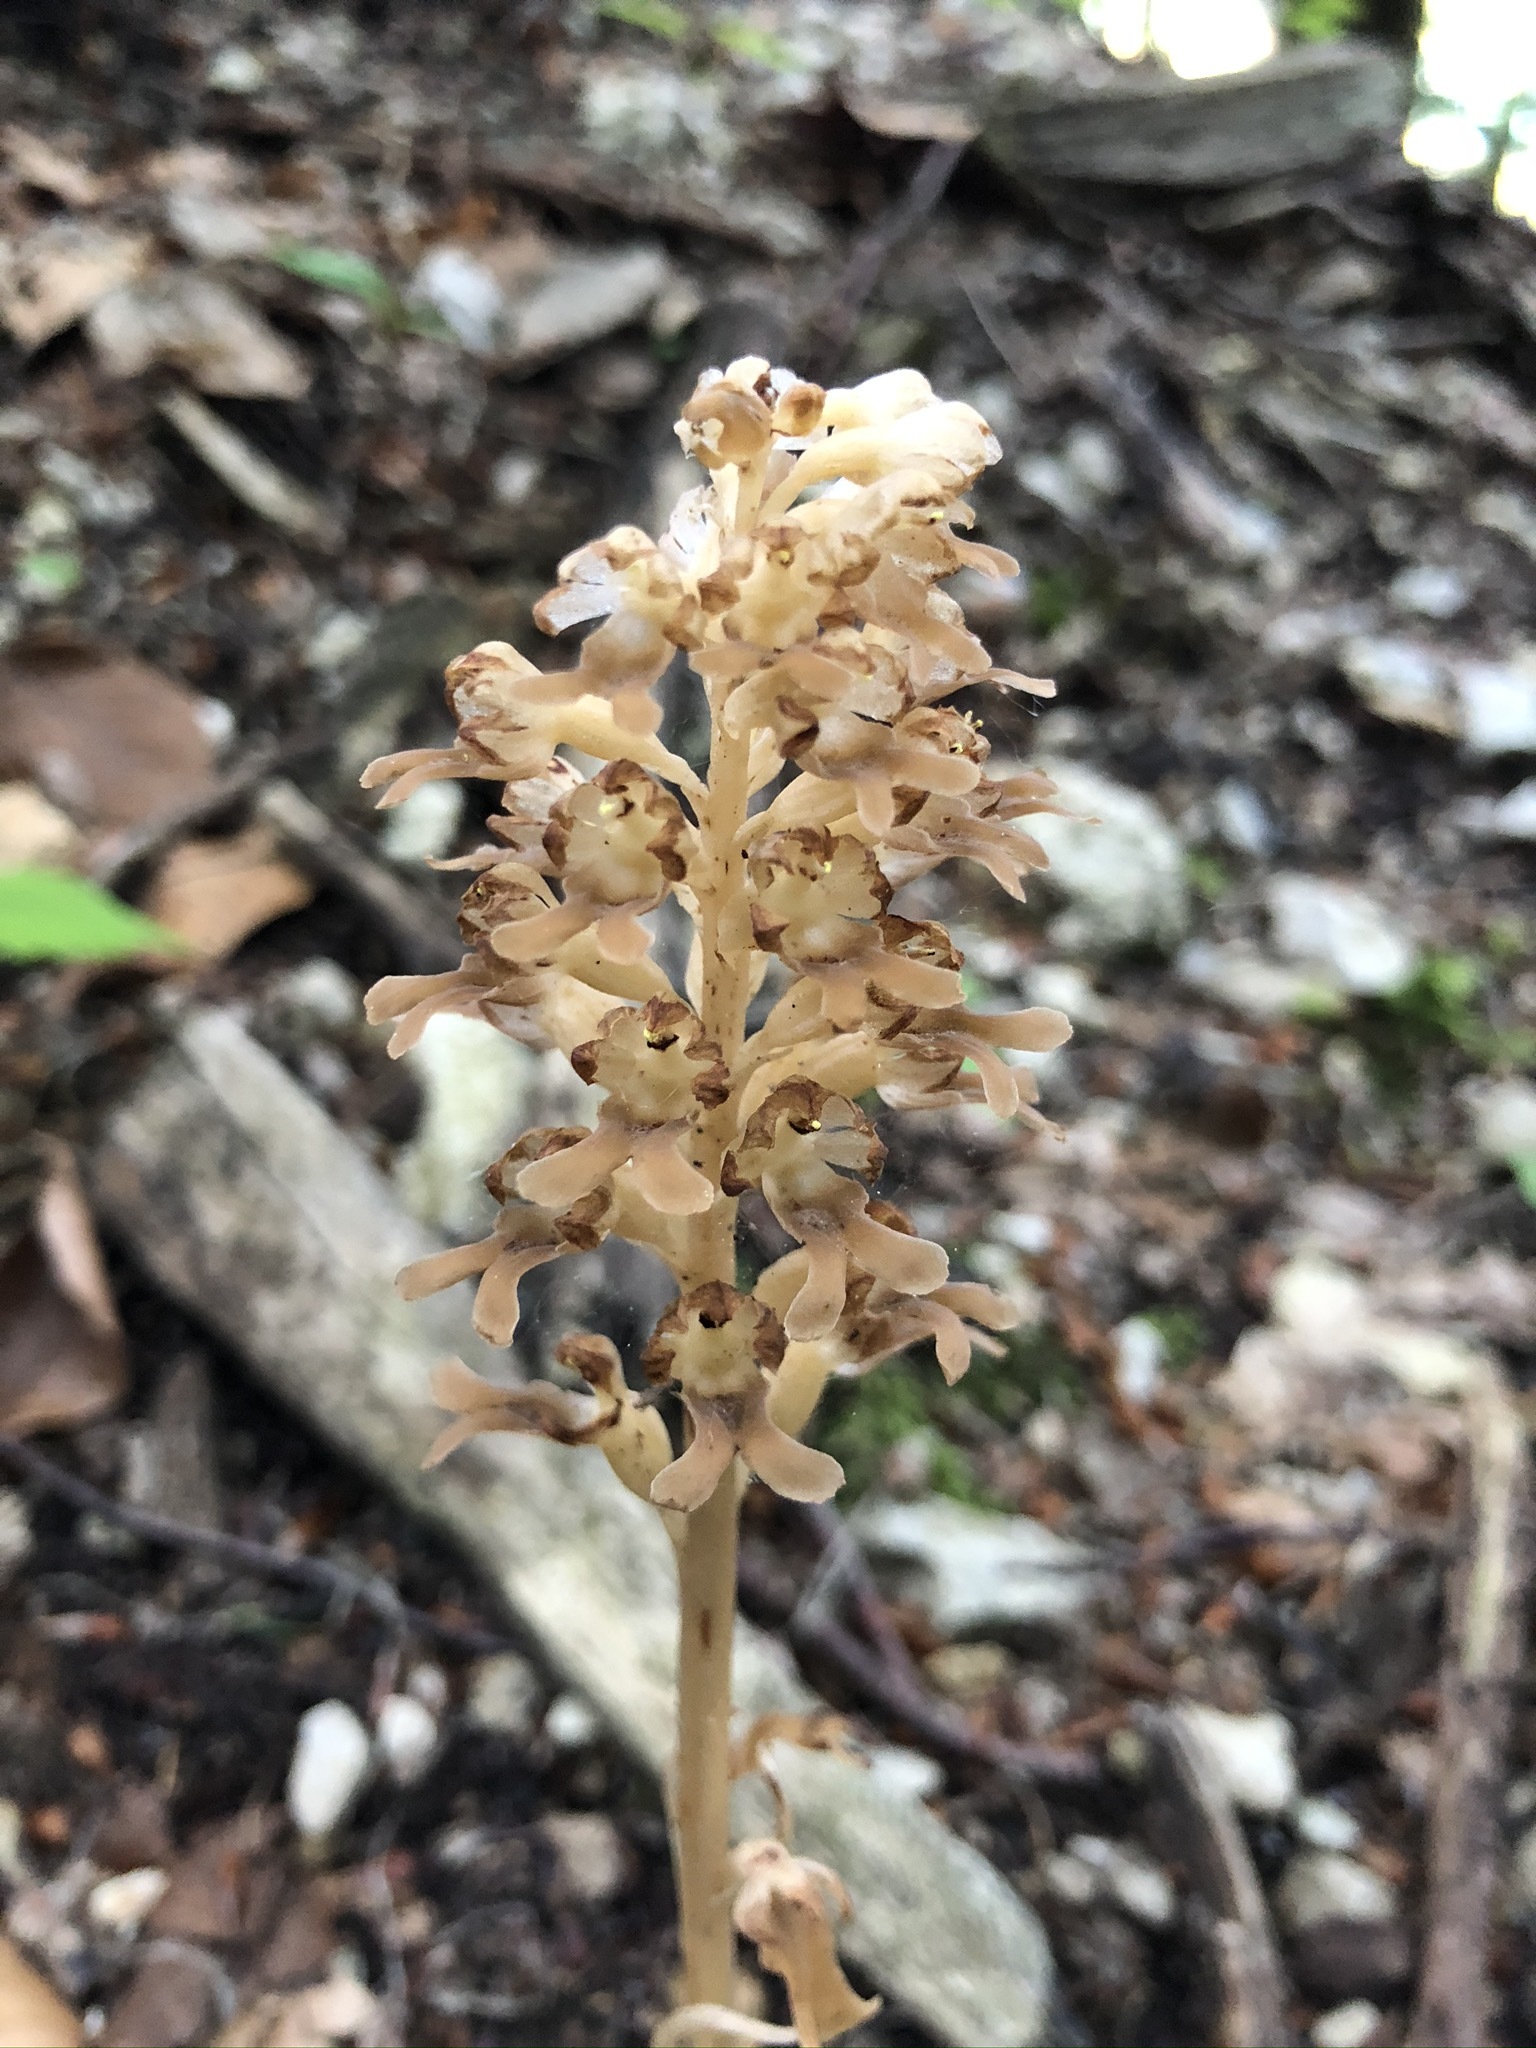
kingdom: Plantae
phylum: Tracheophyta
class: Liliopsida
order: Asparagales
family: Orchidaceae
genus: Neottia
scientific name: Neottia nidus-avis
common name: Bird's-nest orchid
